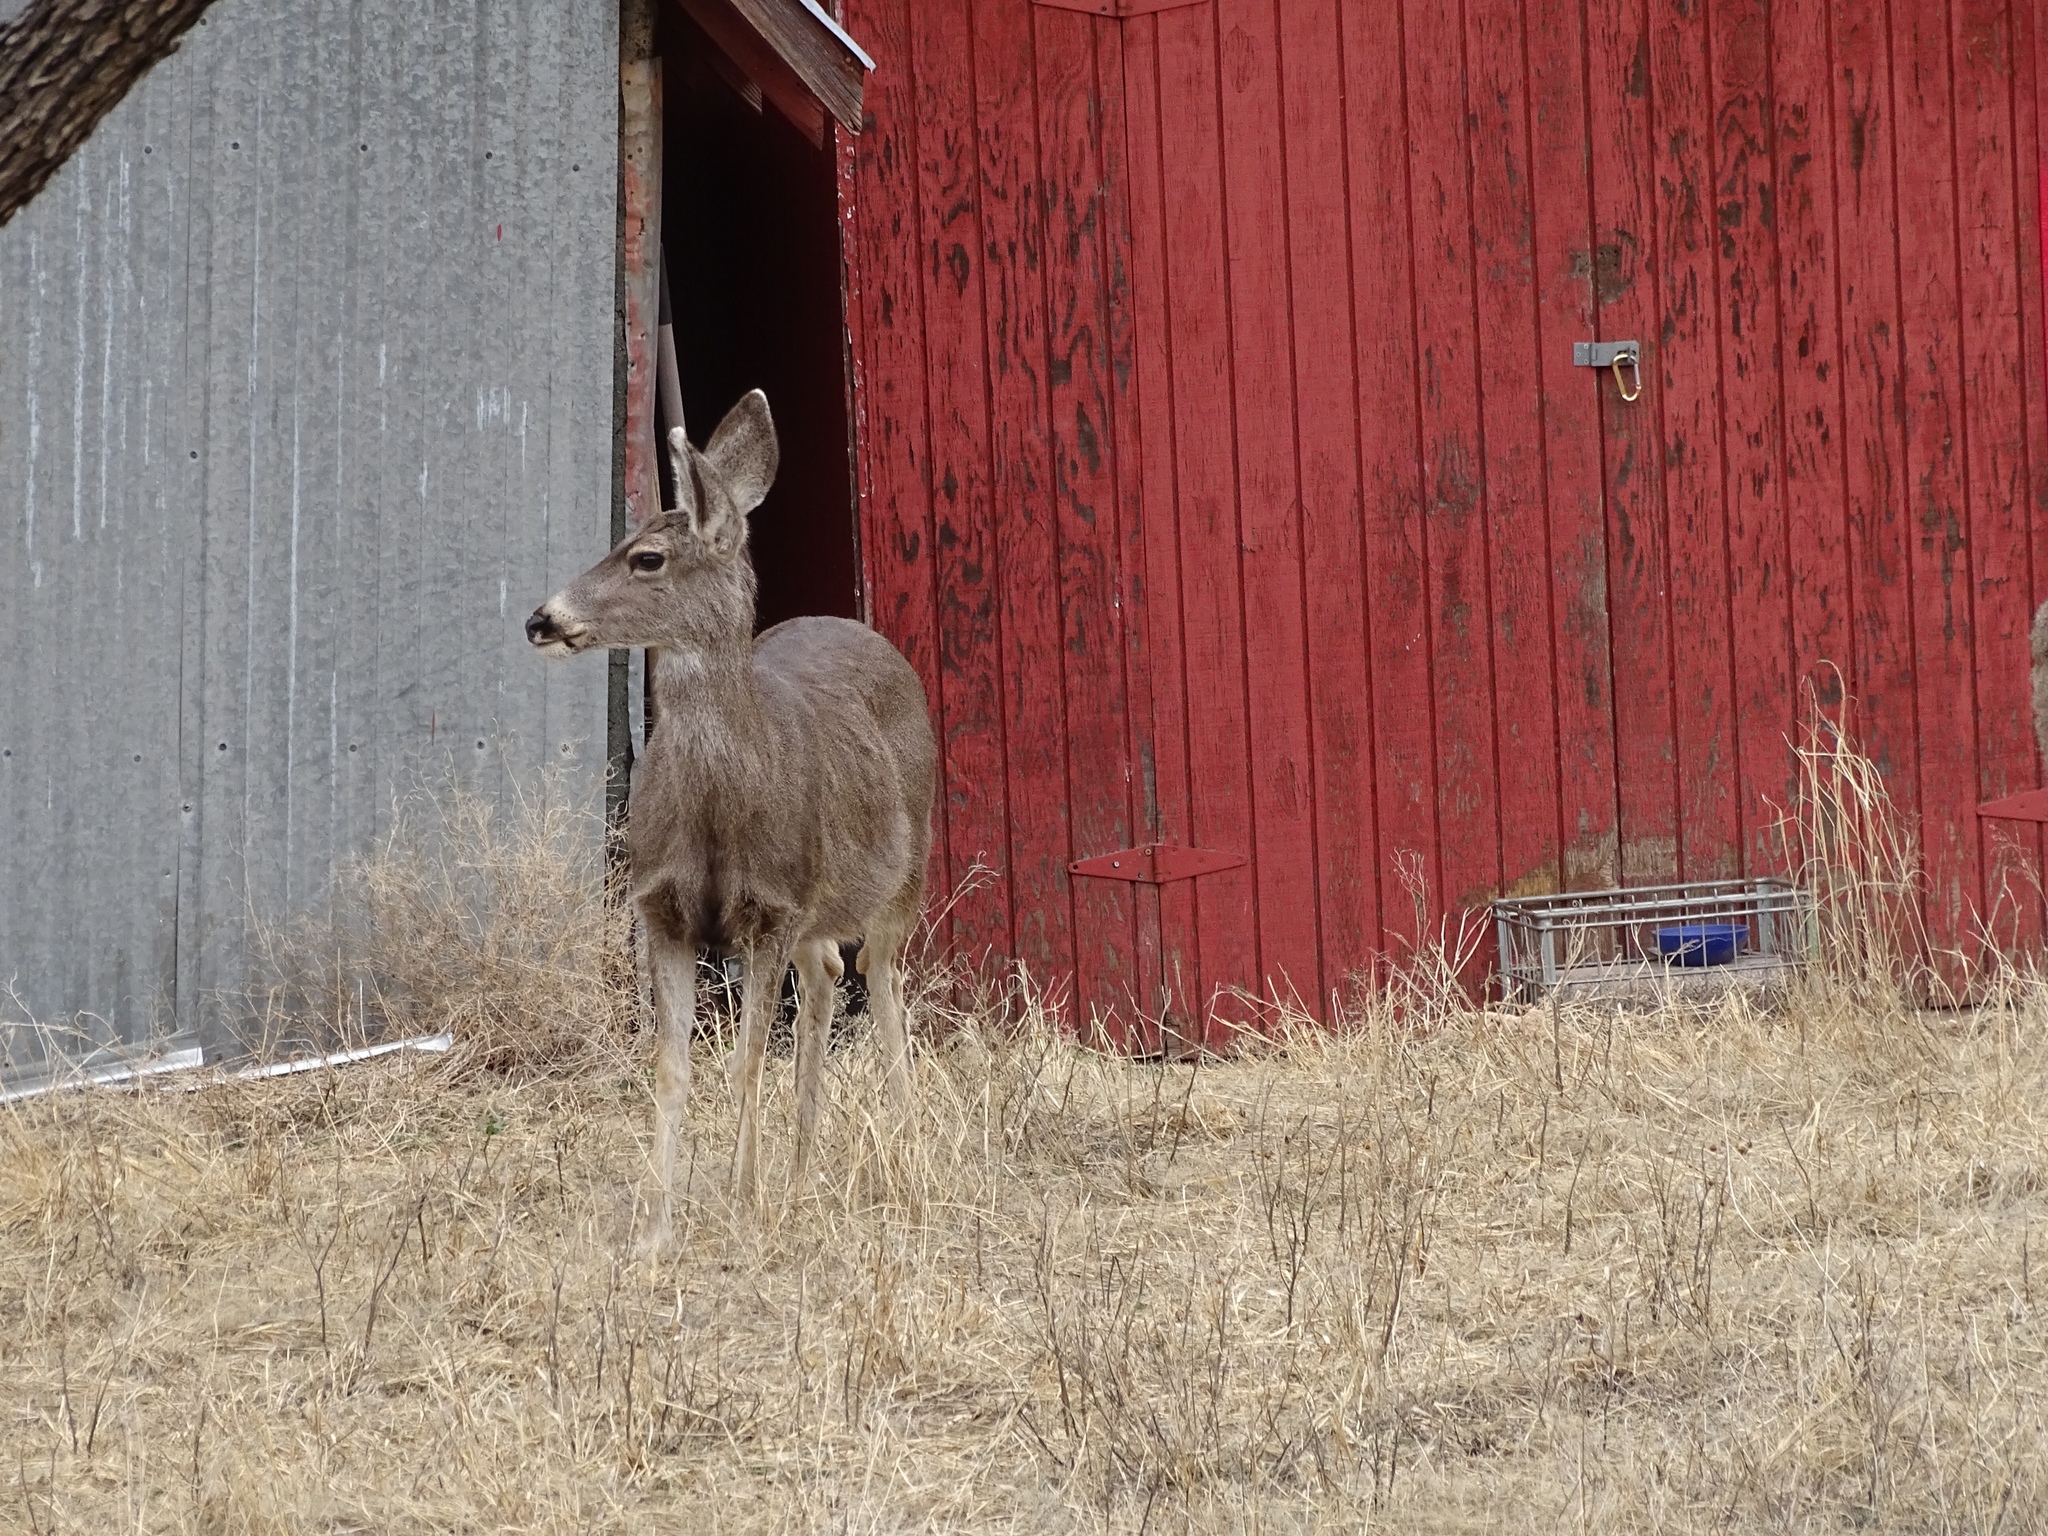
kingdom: Animalia
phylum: Chordata
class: Mammalia
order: Artiodactyla
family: Cervidae
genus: Odocoileus
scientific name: Odocoileus hemionus
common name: Mule deer
